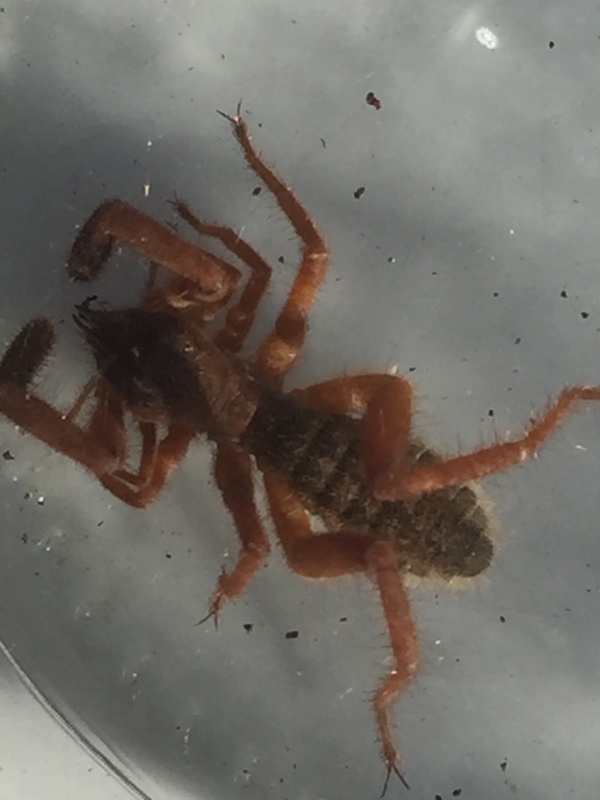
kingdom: Animalia
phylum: Arthropoda
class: Arachnida
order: Solifugae
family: Daesiidae
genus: Gluvia
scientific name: Gluvia dorsalis
